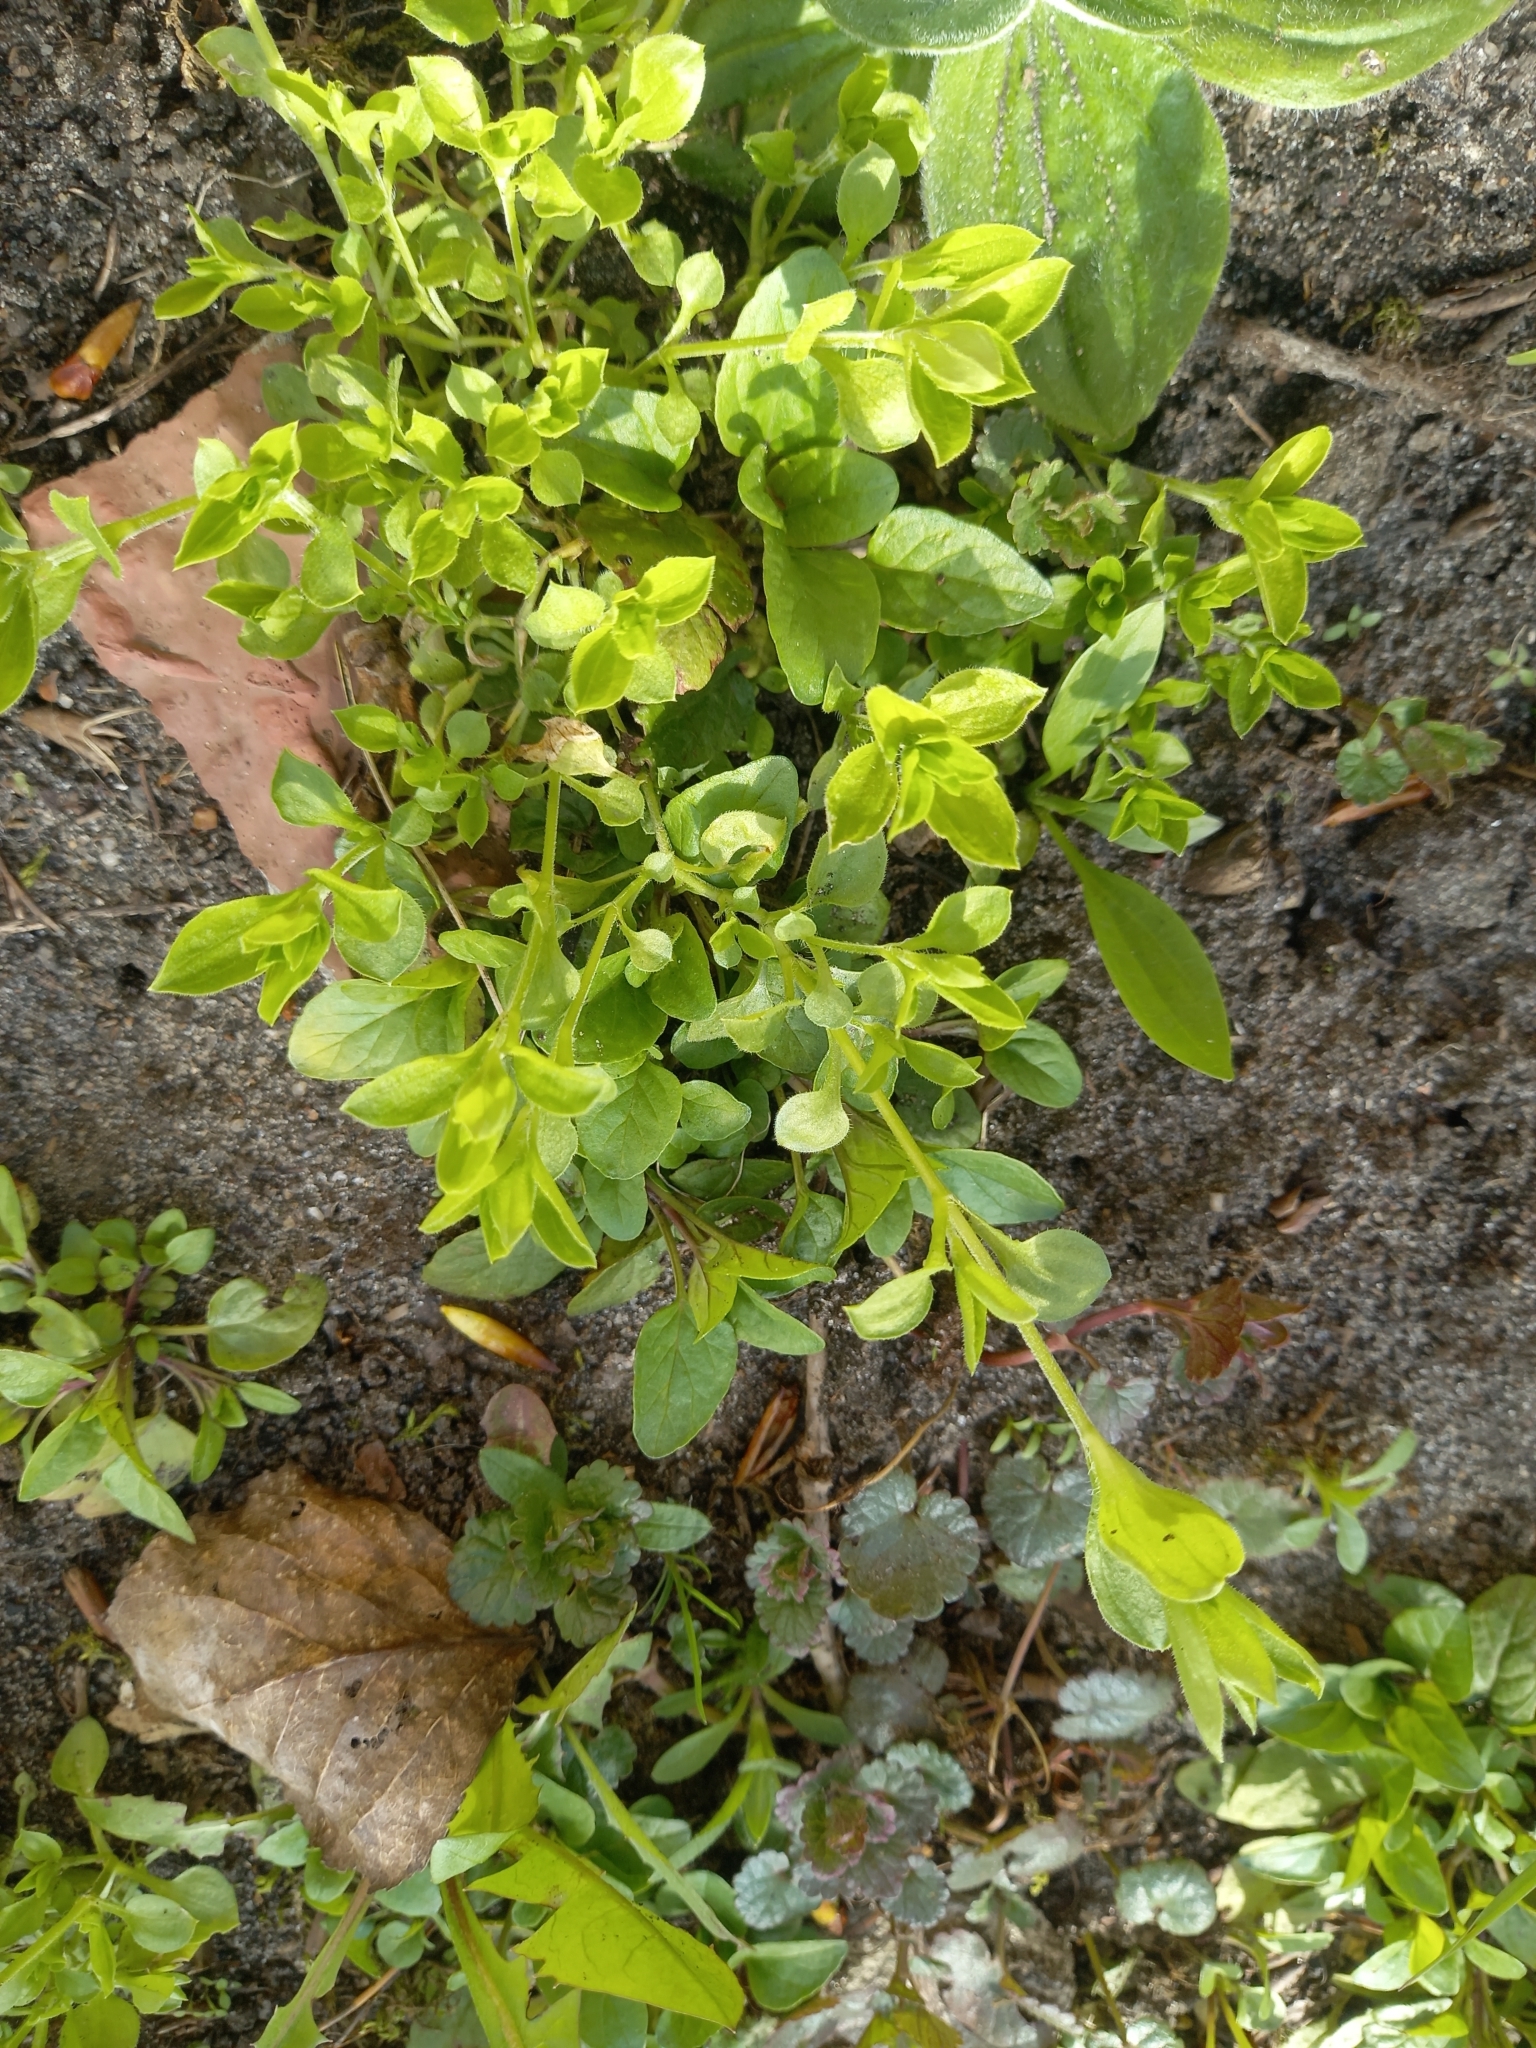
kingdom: Plantae
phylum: Tracheophyta
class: Magnoliopsida
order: Caryophyllales
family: Caryophyllaceae
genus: Moehringia
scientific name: Moehringia trinervia
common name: Three-nerved sandwort
